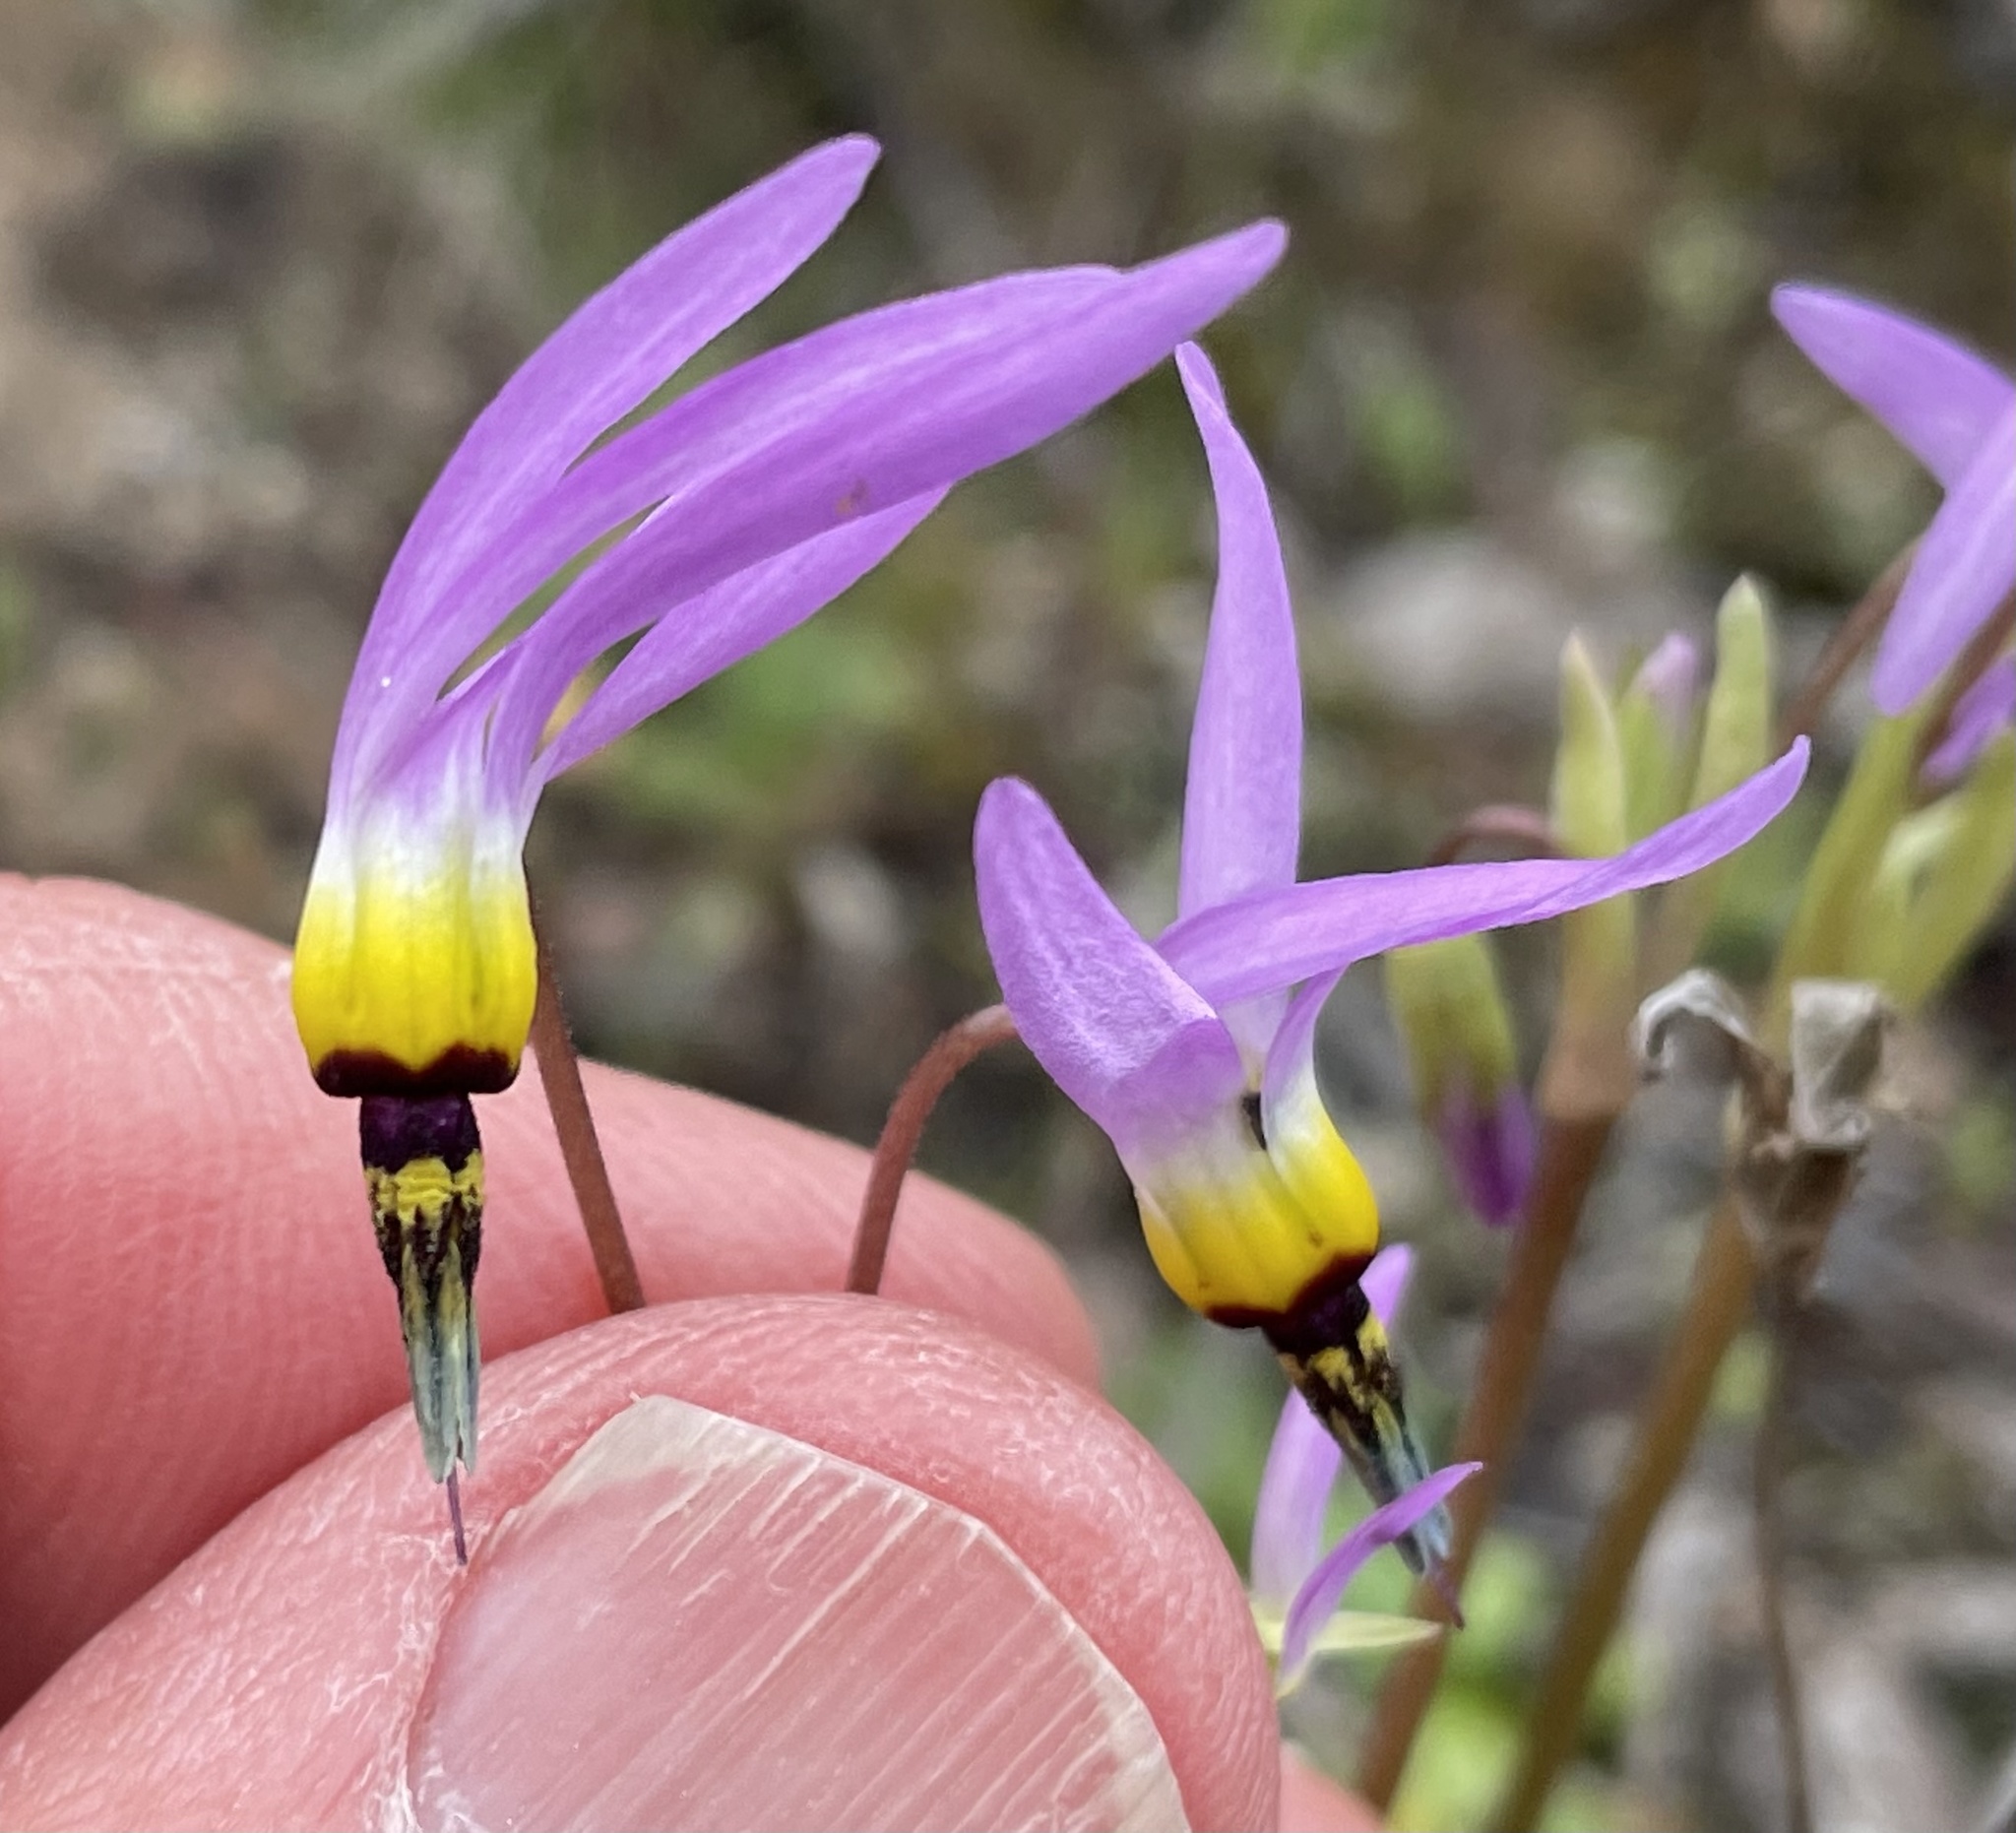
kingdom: Plantae
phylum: Tracheophyta
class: Magnoliopsida
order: Ericales
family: Primulaceae
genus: Dodecatheon
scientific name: Dodecatheon clevelandii
